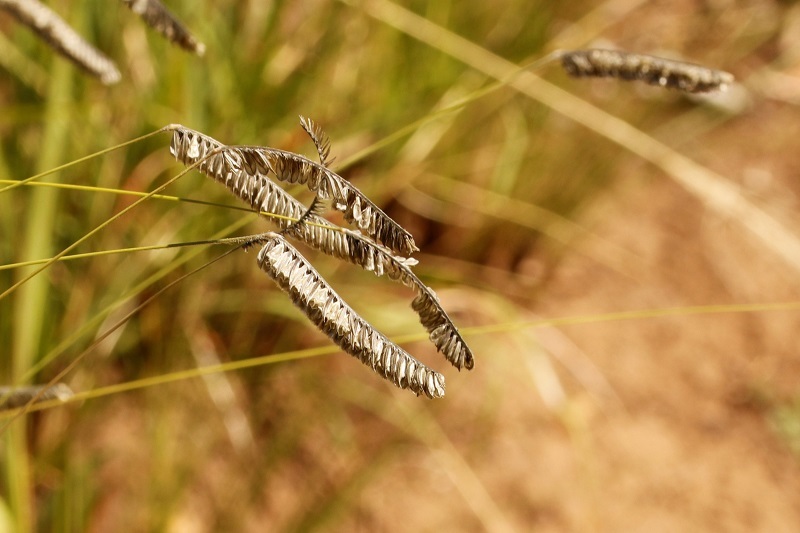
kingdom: Plantae
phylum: Tracheophyta
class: Liliopsida
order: Poales
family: Poaceae
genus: Harpochloa
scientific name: Harpochloa falx
